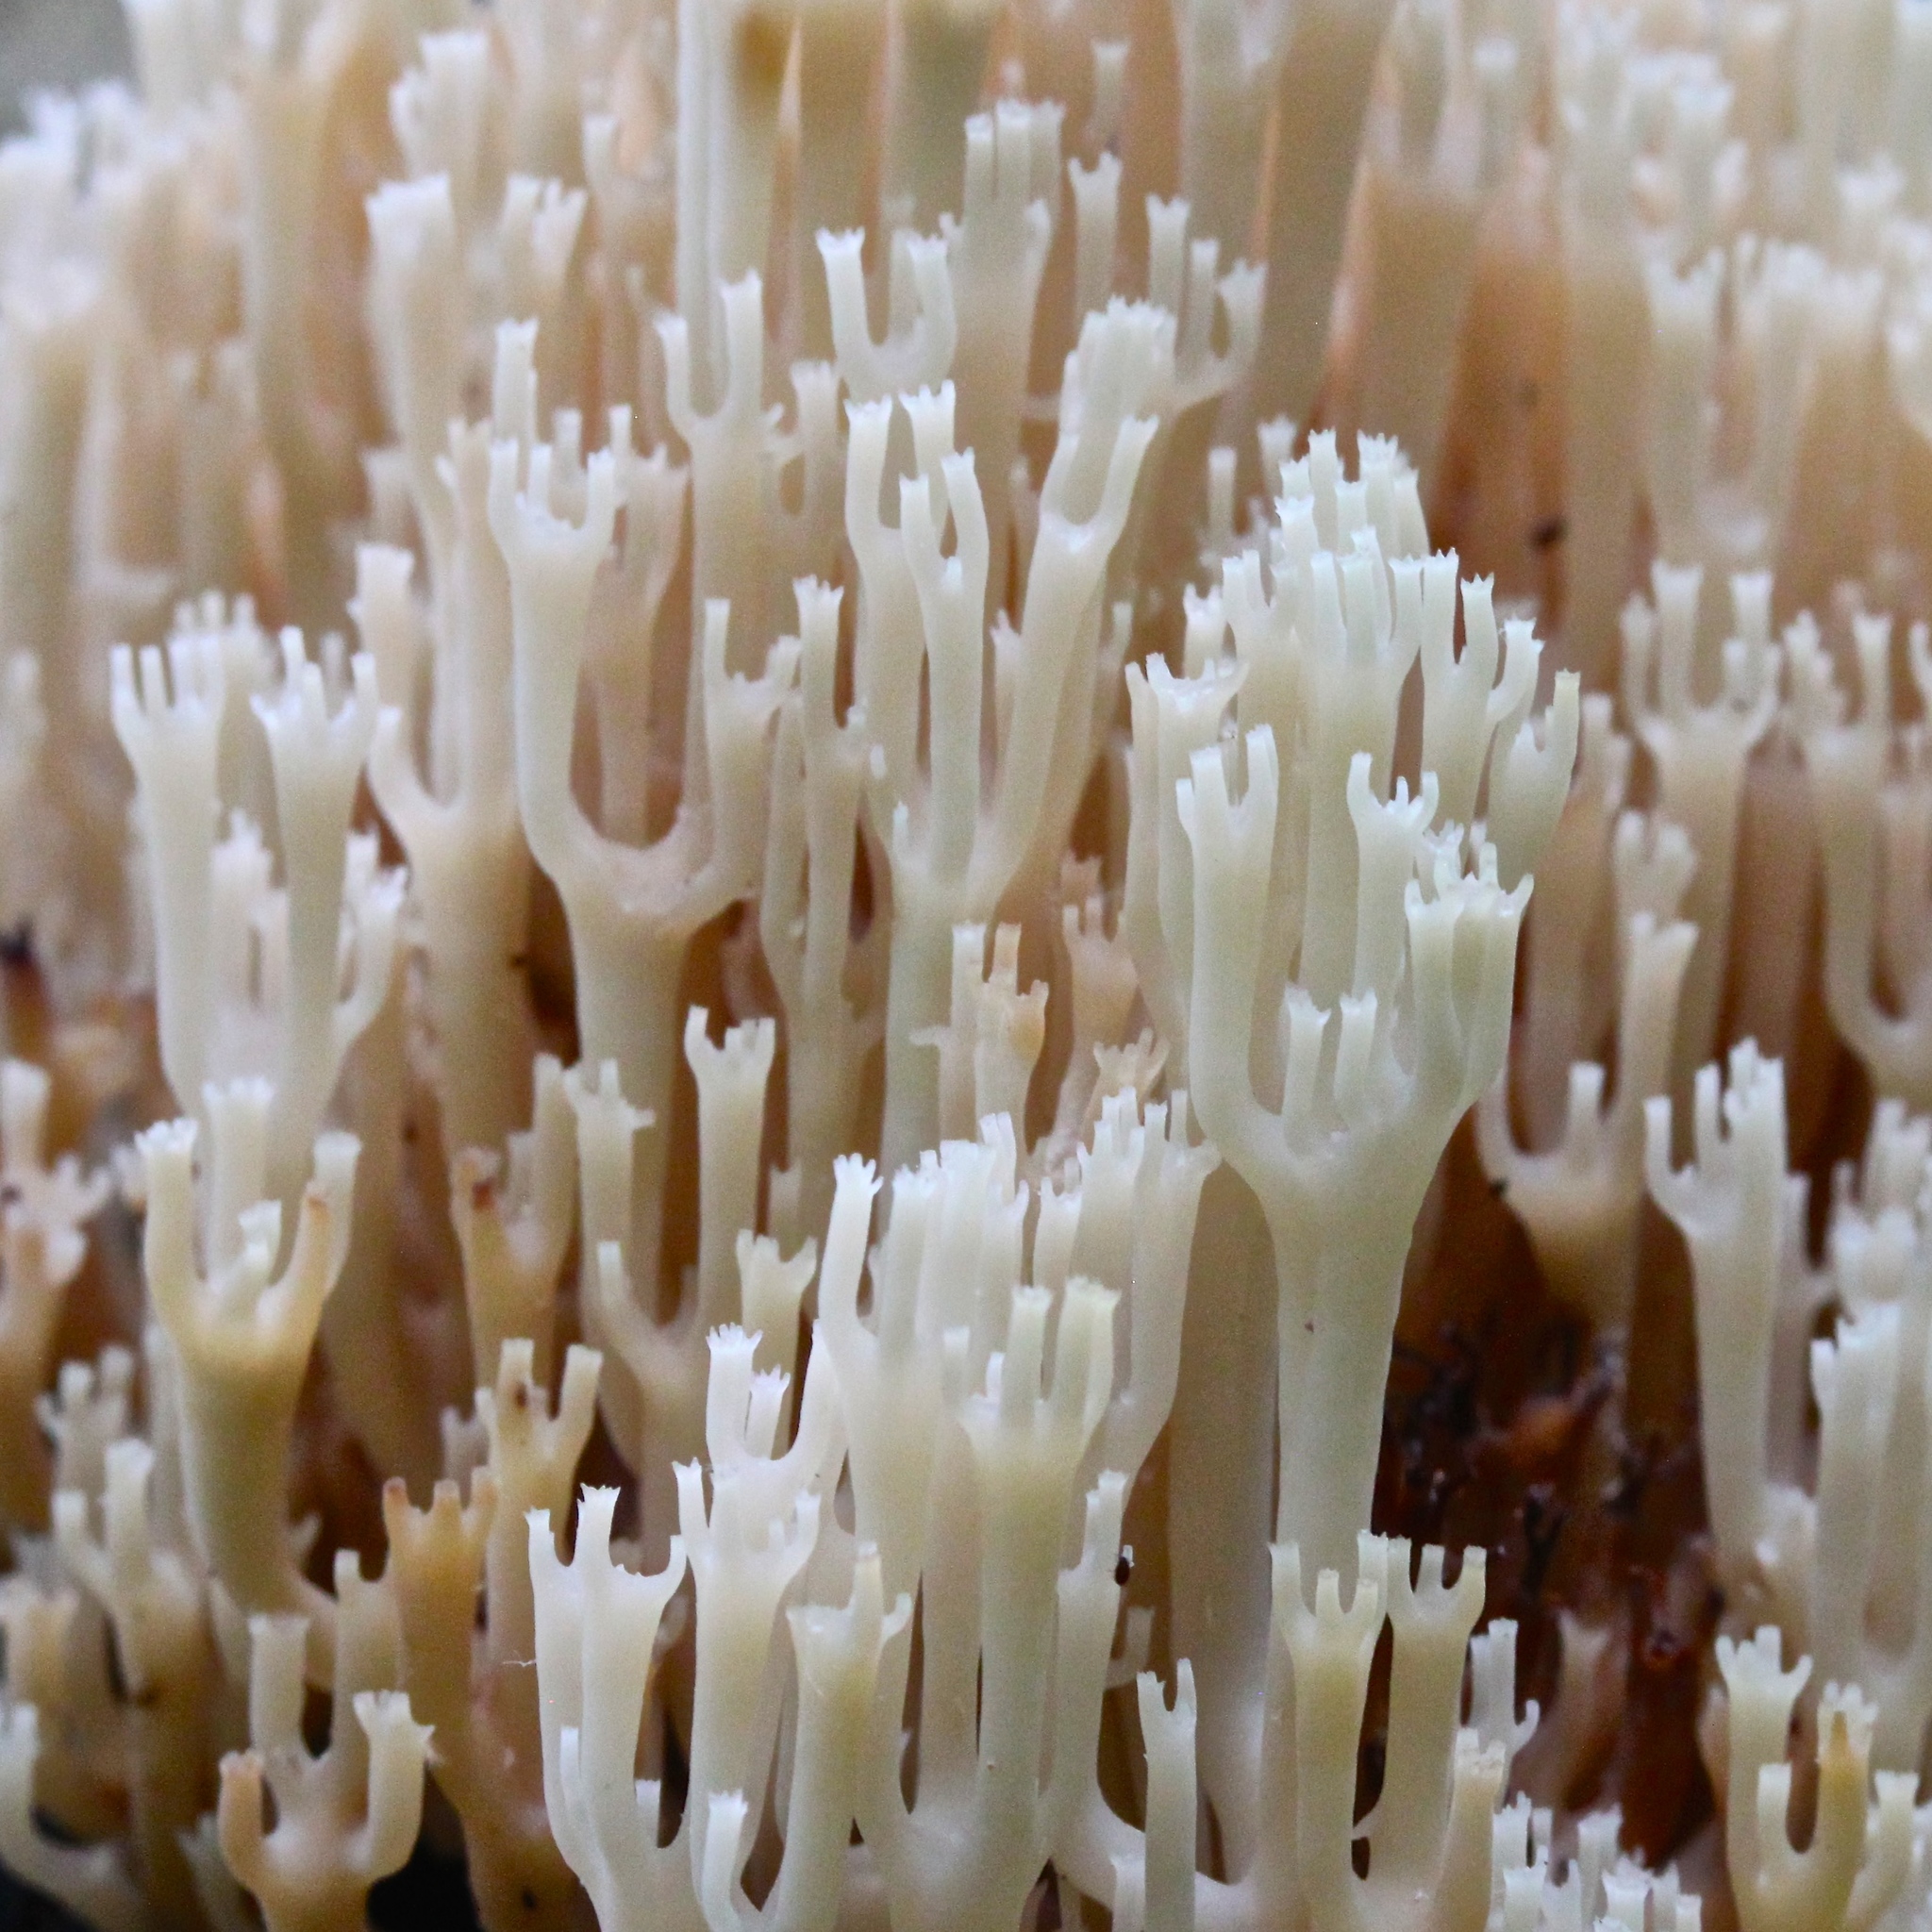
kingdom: Fungi
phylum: Basidiomycota
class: Agaricomycetes
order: Russulales
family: Auriscalpiaceae
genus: Artomyces
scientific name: Artomyces pyxidatus
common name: Crown-tipped coral fungus
